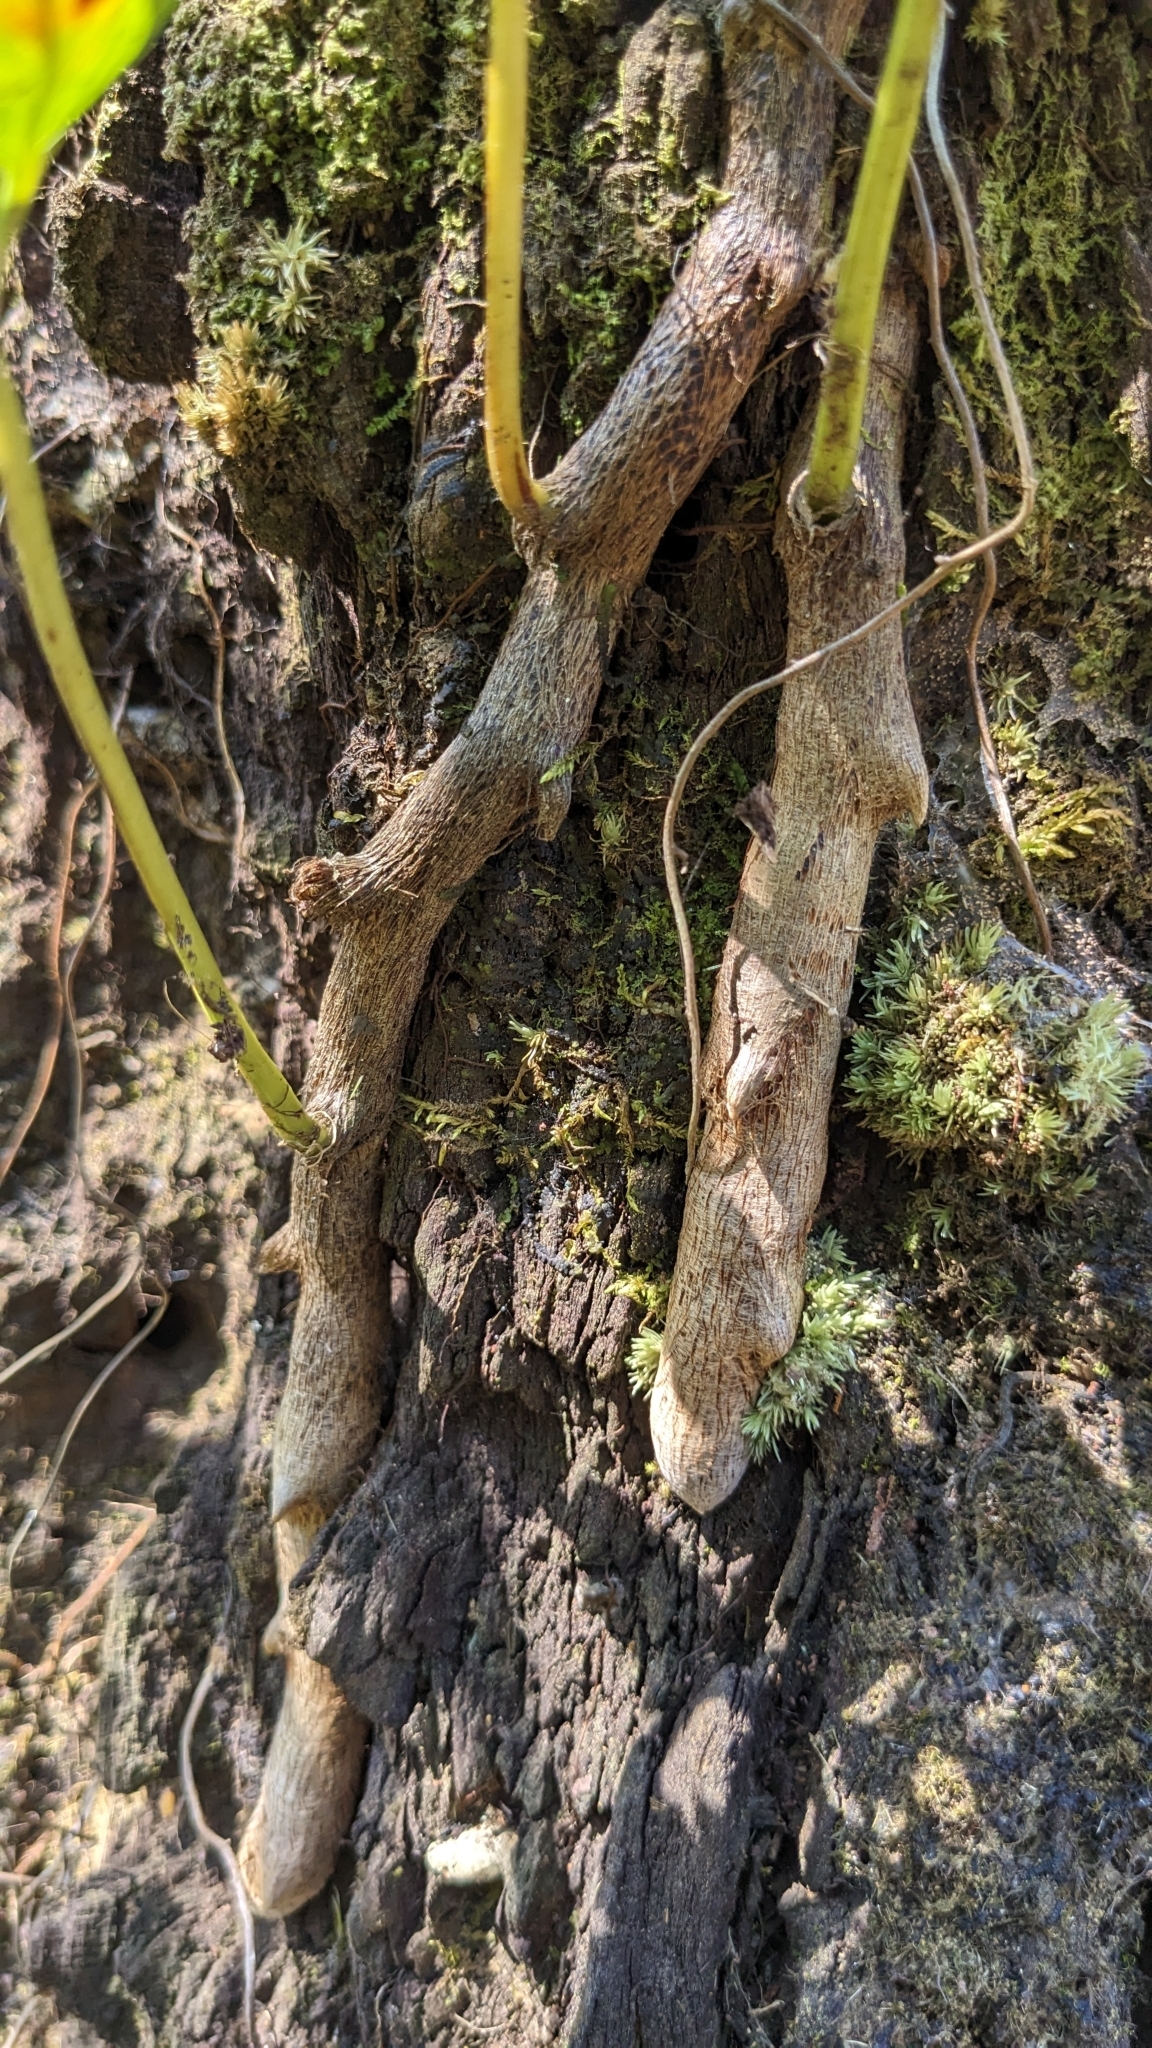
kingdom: Plantae
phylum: Tracheophyta
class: Polypodiopsida
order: Polypodiales
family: Davalliaceae
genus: Davallia
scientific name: Davallia solida
